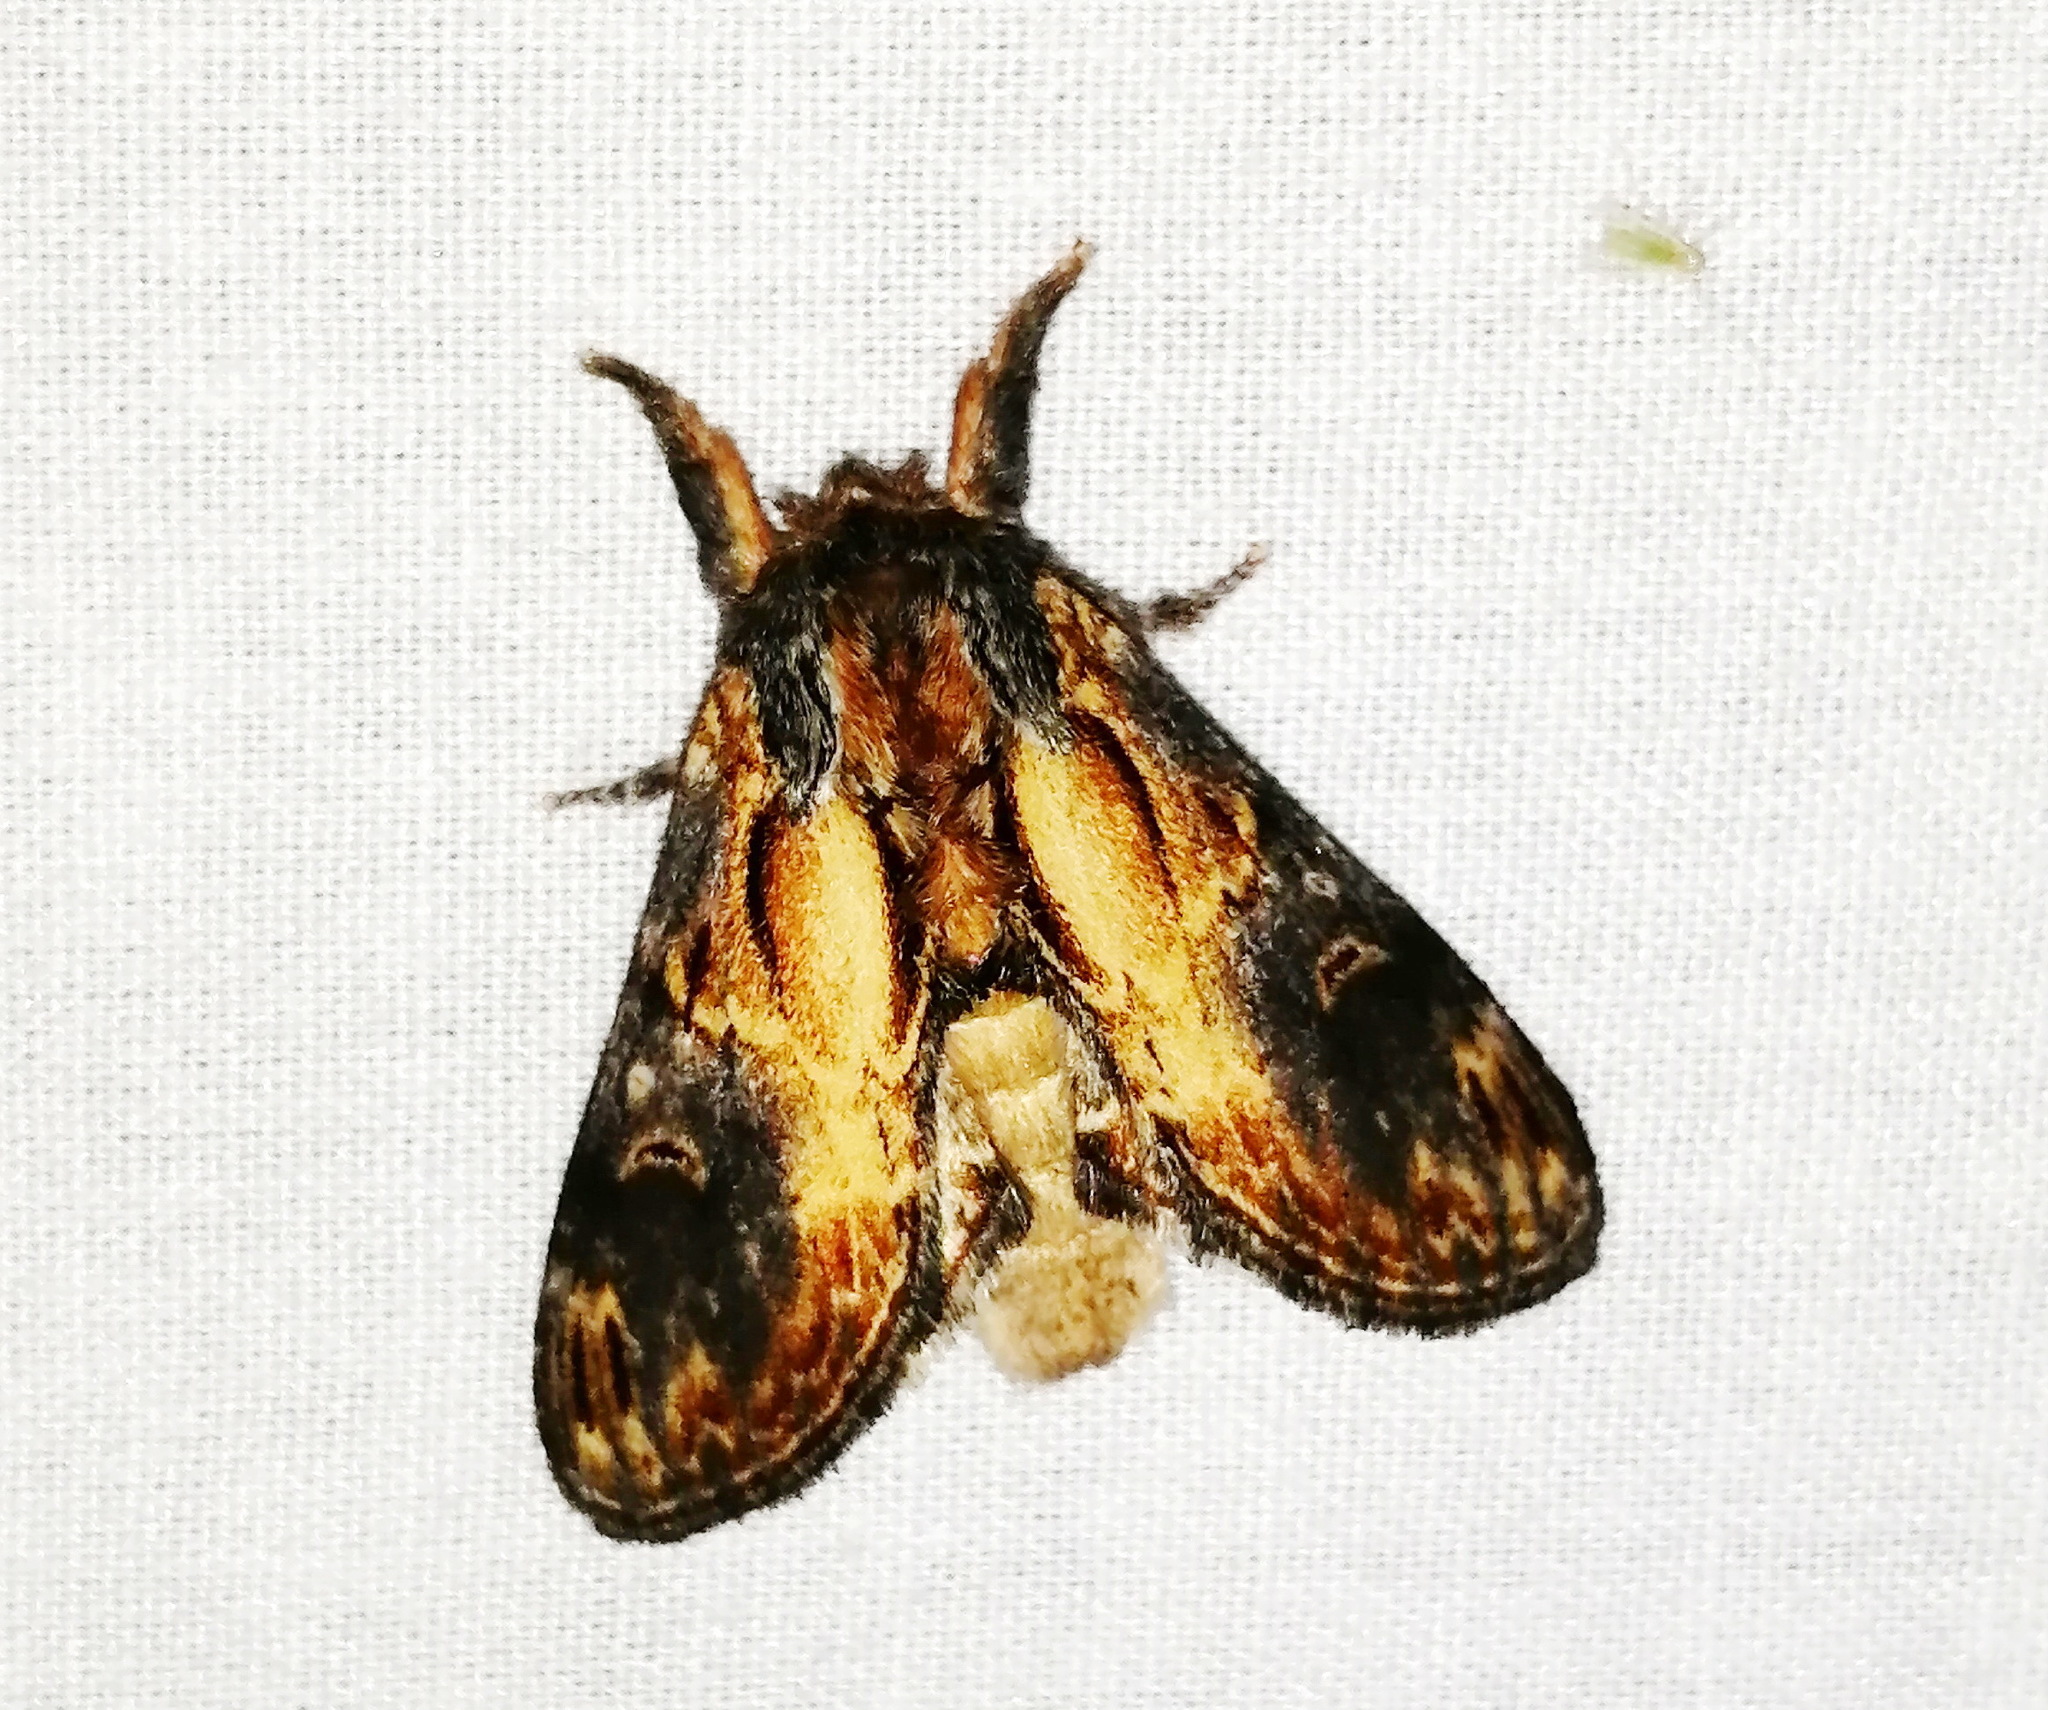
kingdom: Animalia
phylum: Arthropoda
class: Insecta
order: Lepidoptera
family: Notodontidae
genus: Notodonta
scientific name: Notodonta scitipennis
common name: Finned-willow prominent moth
